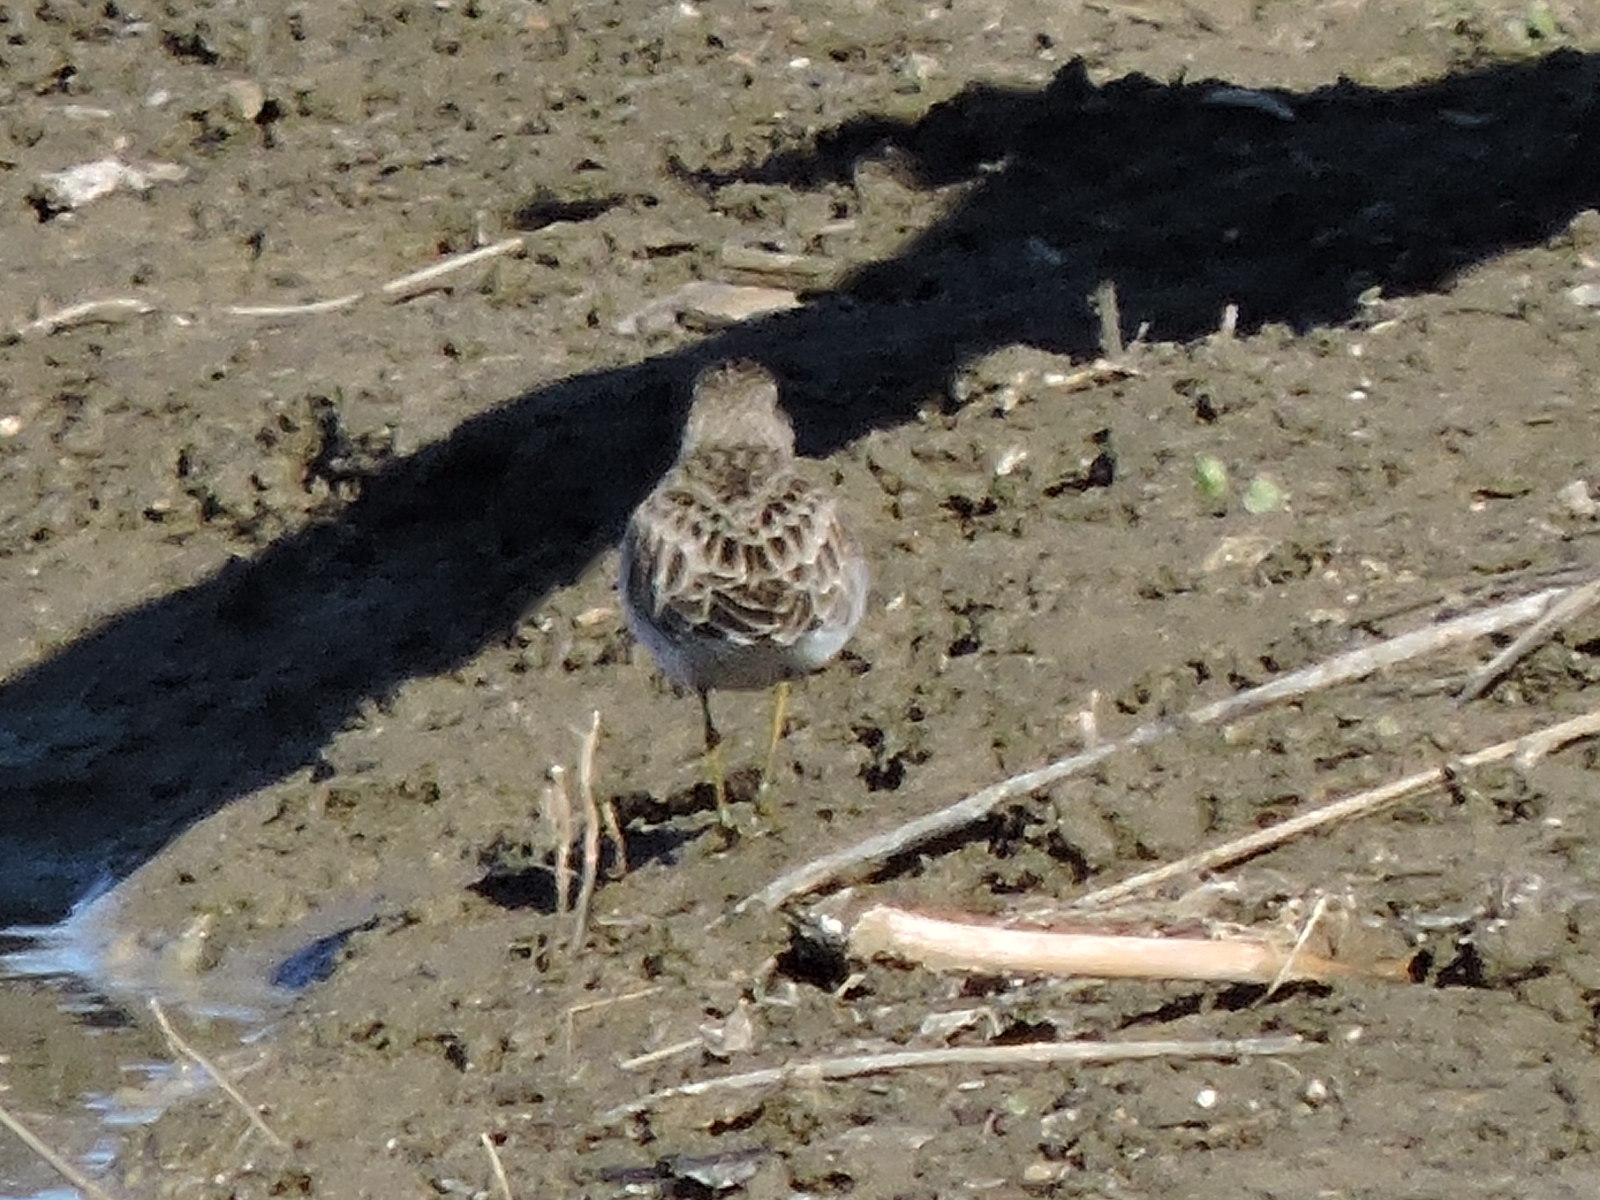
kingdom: Animalia
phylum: Chordata
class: Aves
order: Charadriiformes
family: Scolopacidae
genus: Calidris
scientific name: Calidris minutilla
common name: Least sandpiper
